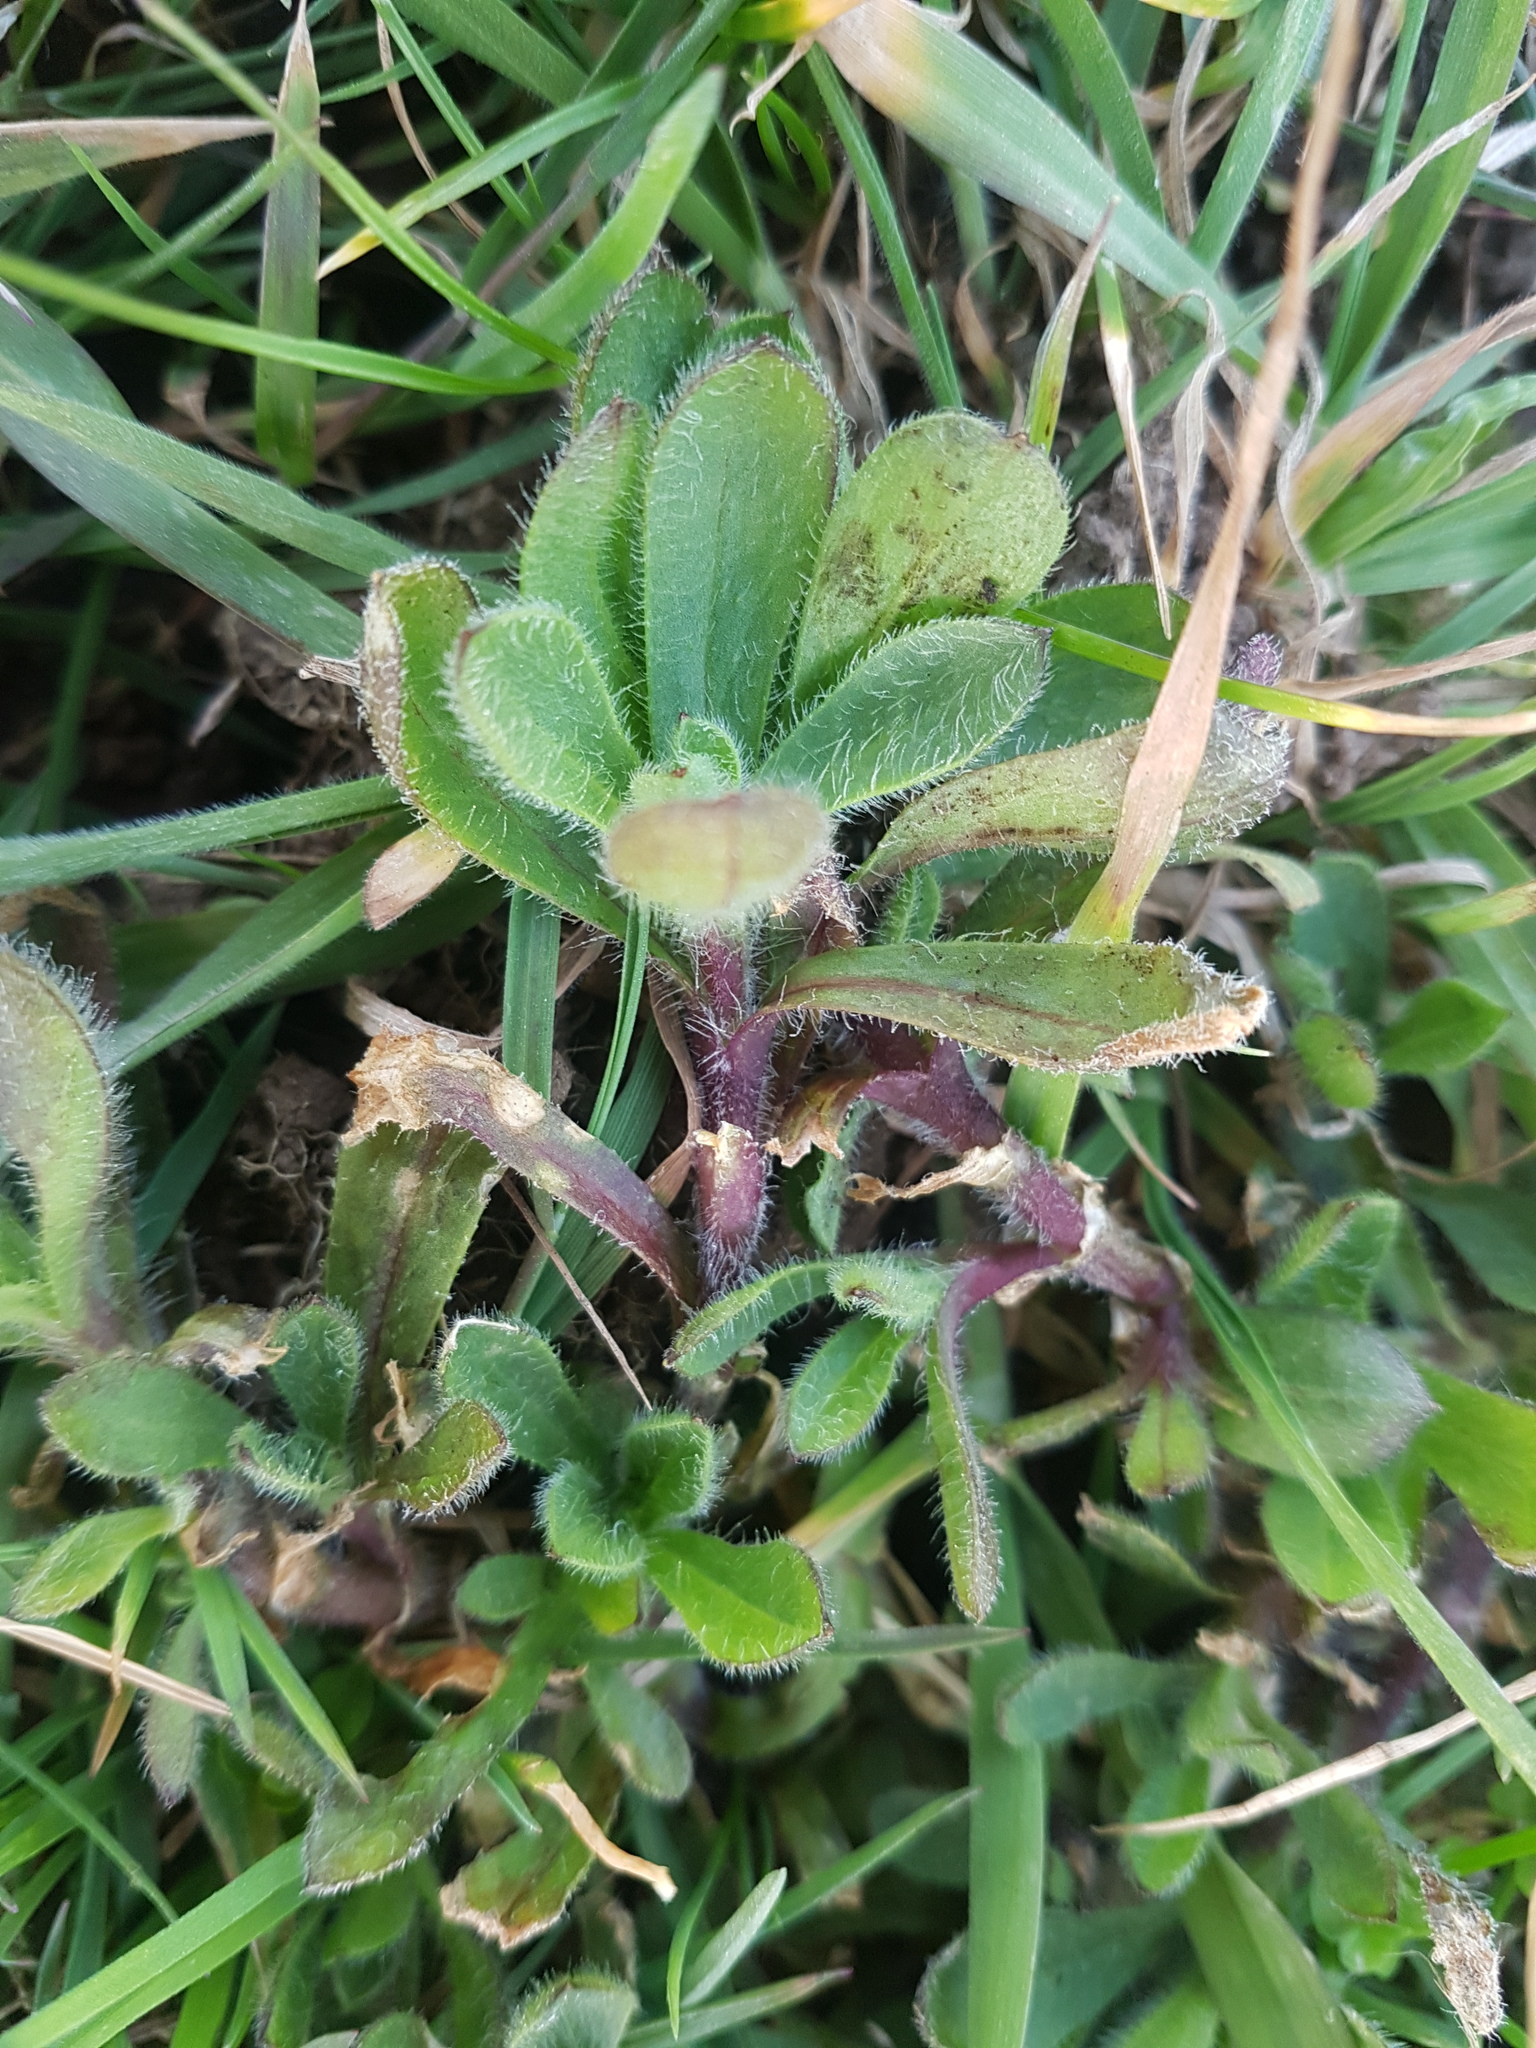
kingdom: Plantae
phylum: Tracheophyta
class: Magnoliopsida
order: Caryophyllales
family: Caryophyllaceae
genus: Cerastium
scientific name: Cerastium fontanum
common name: Common mouse-ear
